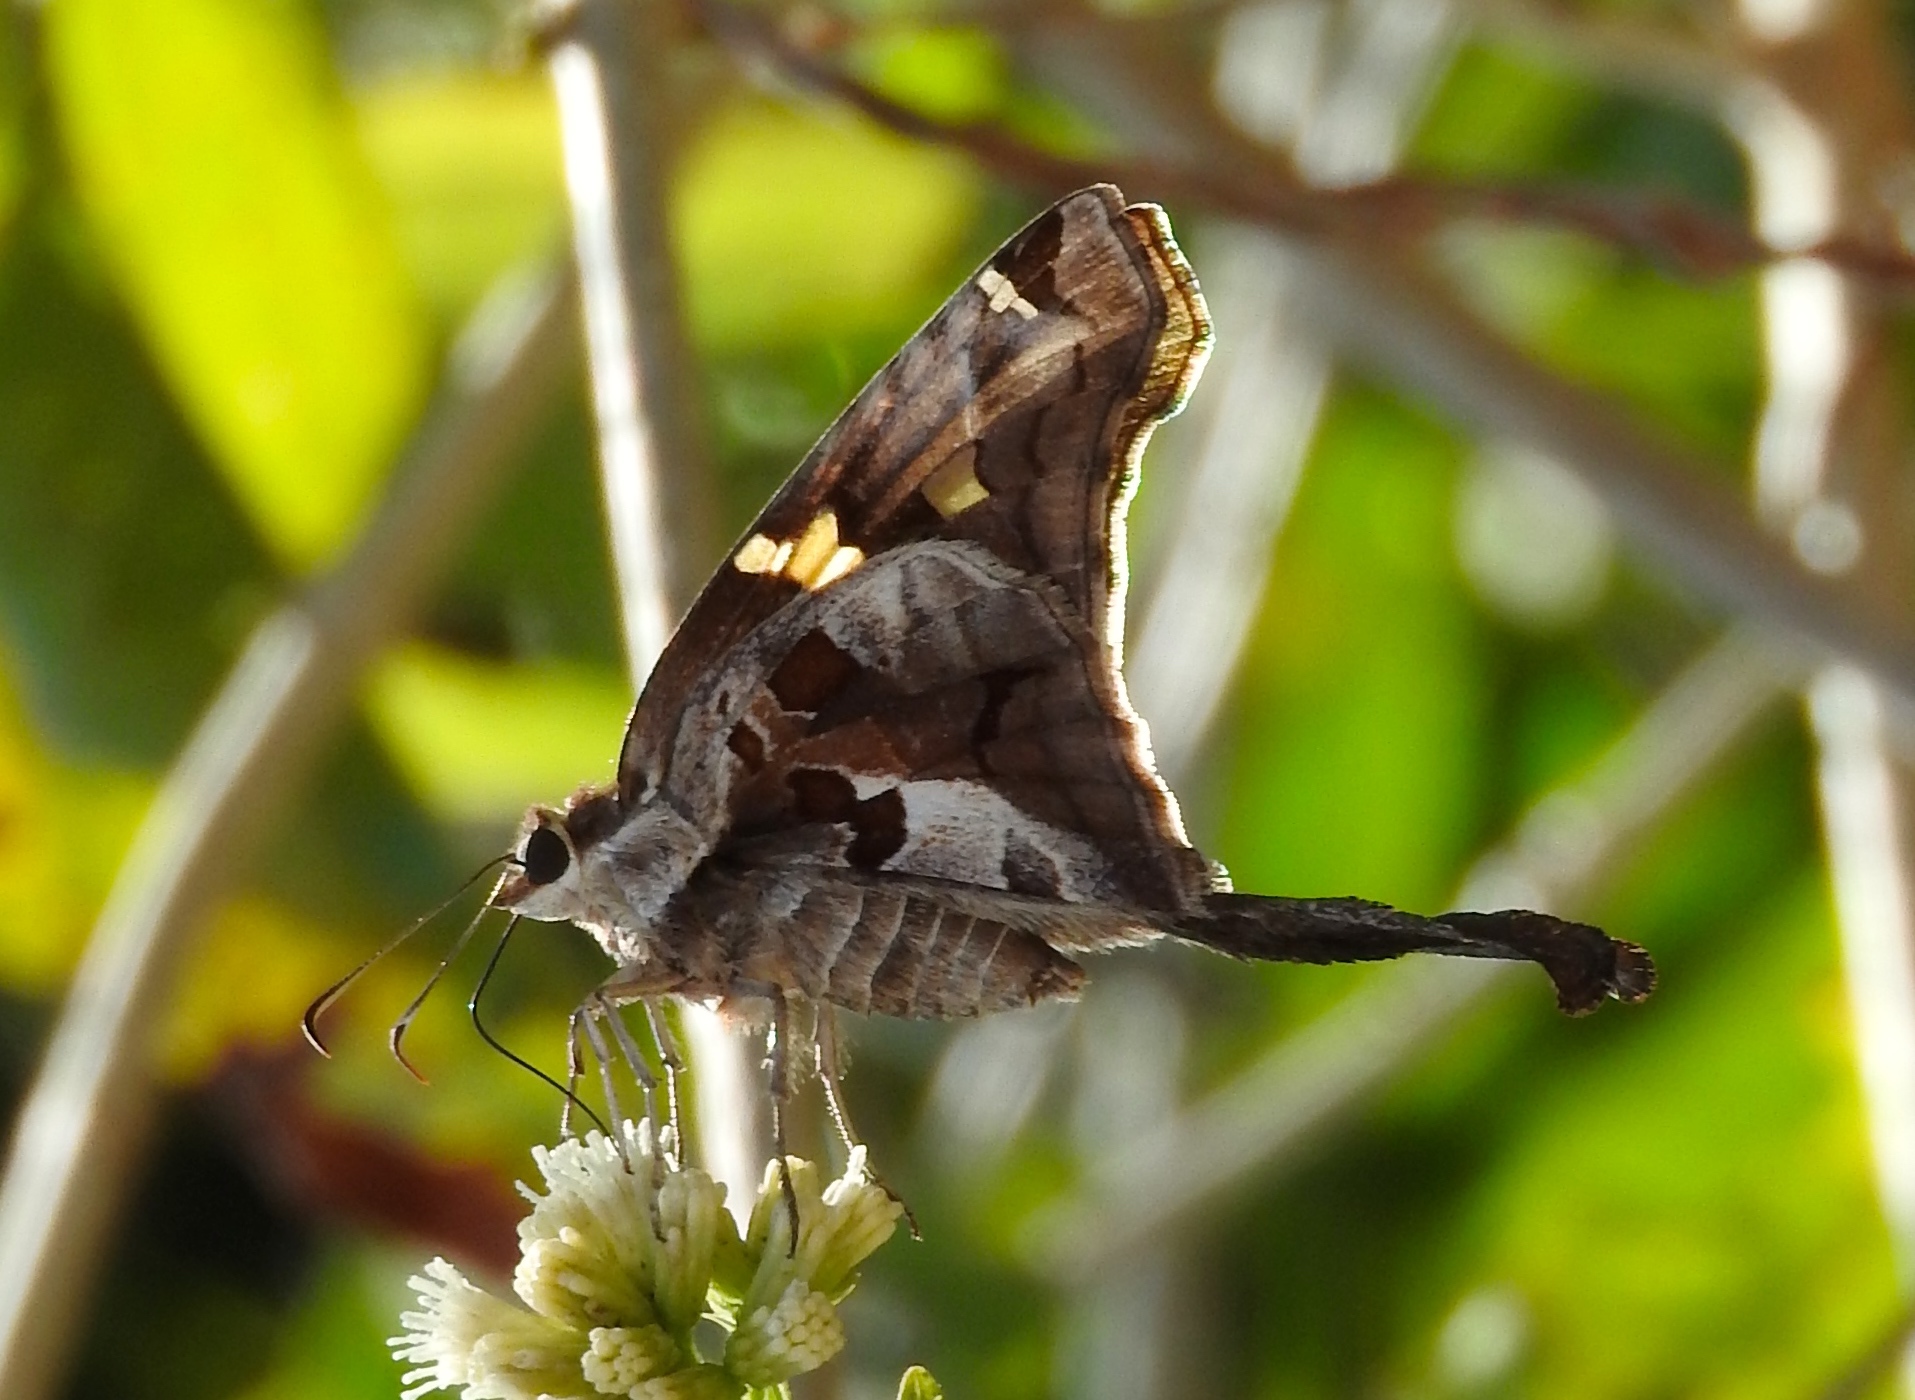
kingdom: Animalia
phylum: Arthropoda
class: Insecta
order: Lepidoptera
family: Hesperiidae
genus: Chioides
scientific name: Chioides zilpa
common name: Zilpa longtail
